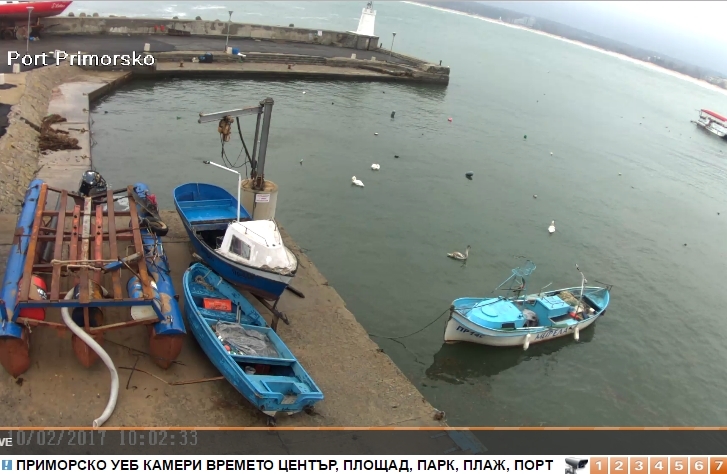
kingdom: Animalia
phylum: Chordata
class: Aves
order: Anseriformes
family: Anatidae
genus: Cygnus
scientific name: Cygnus olor
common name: Mute swan
